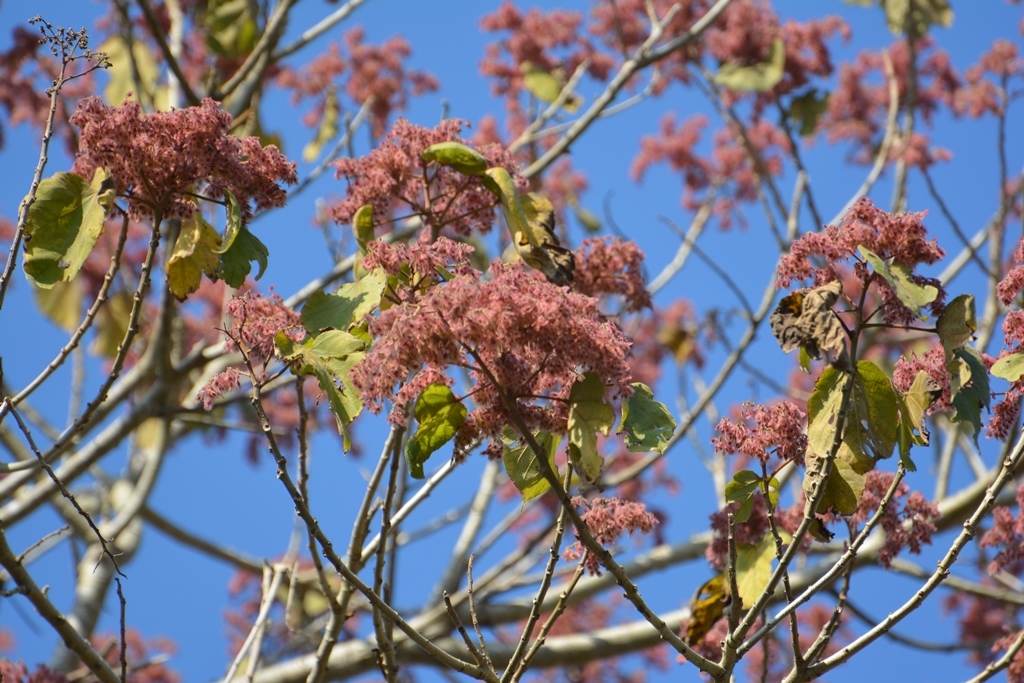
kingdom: Plantae
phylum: Tracheophyta
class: Magnoliopsida
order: Malvales
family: Malvaceae
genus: Heliocarpus
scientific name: Heliocarpus terebinthinaceus
